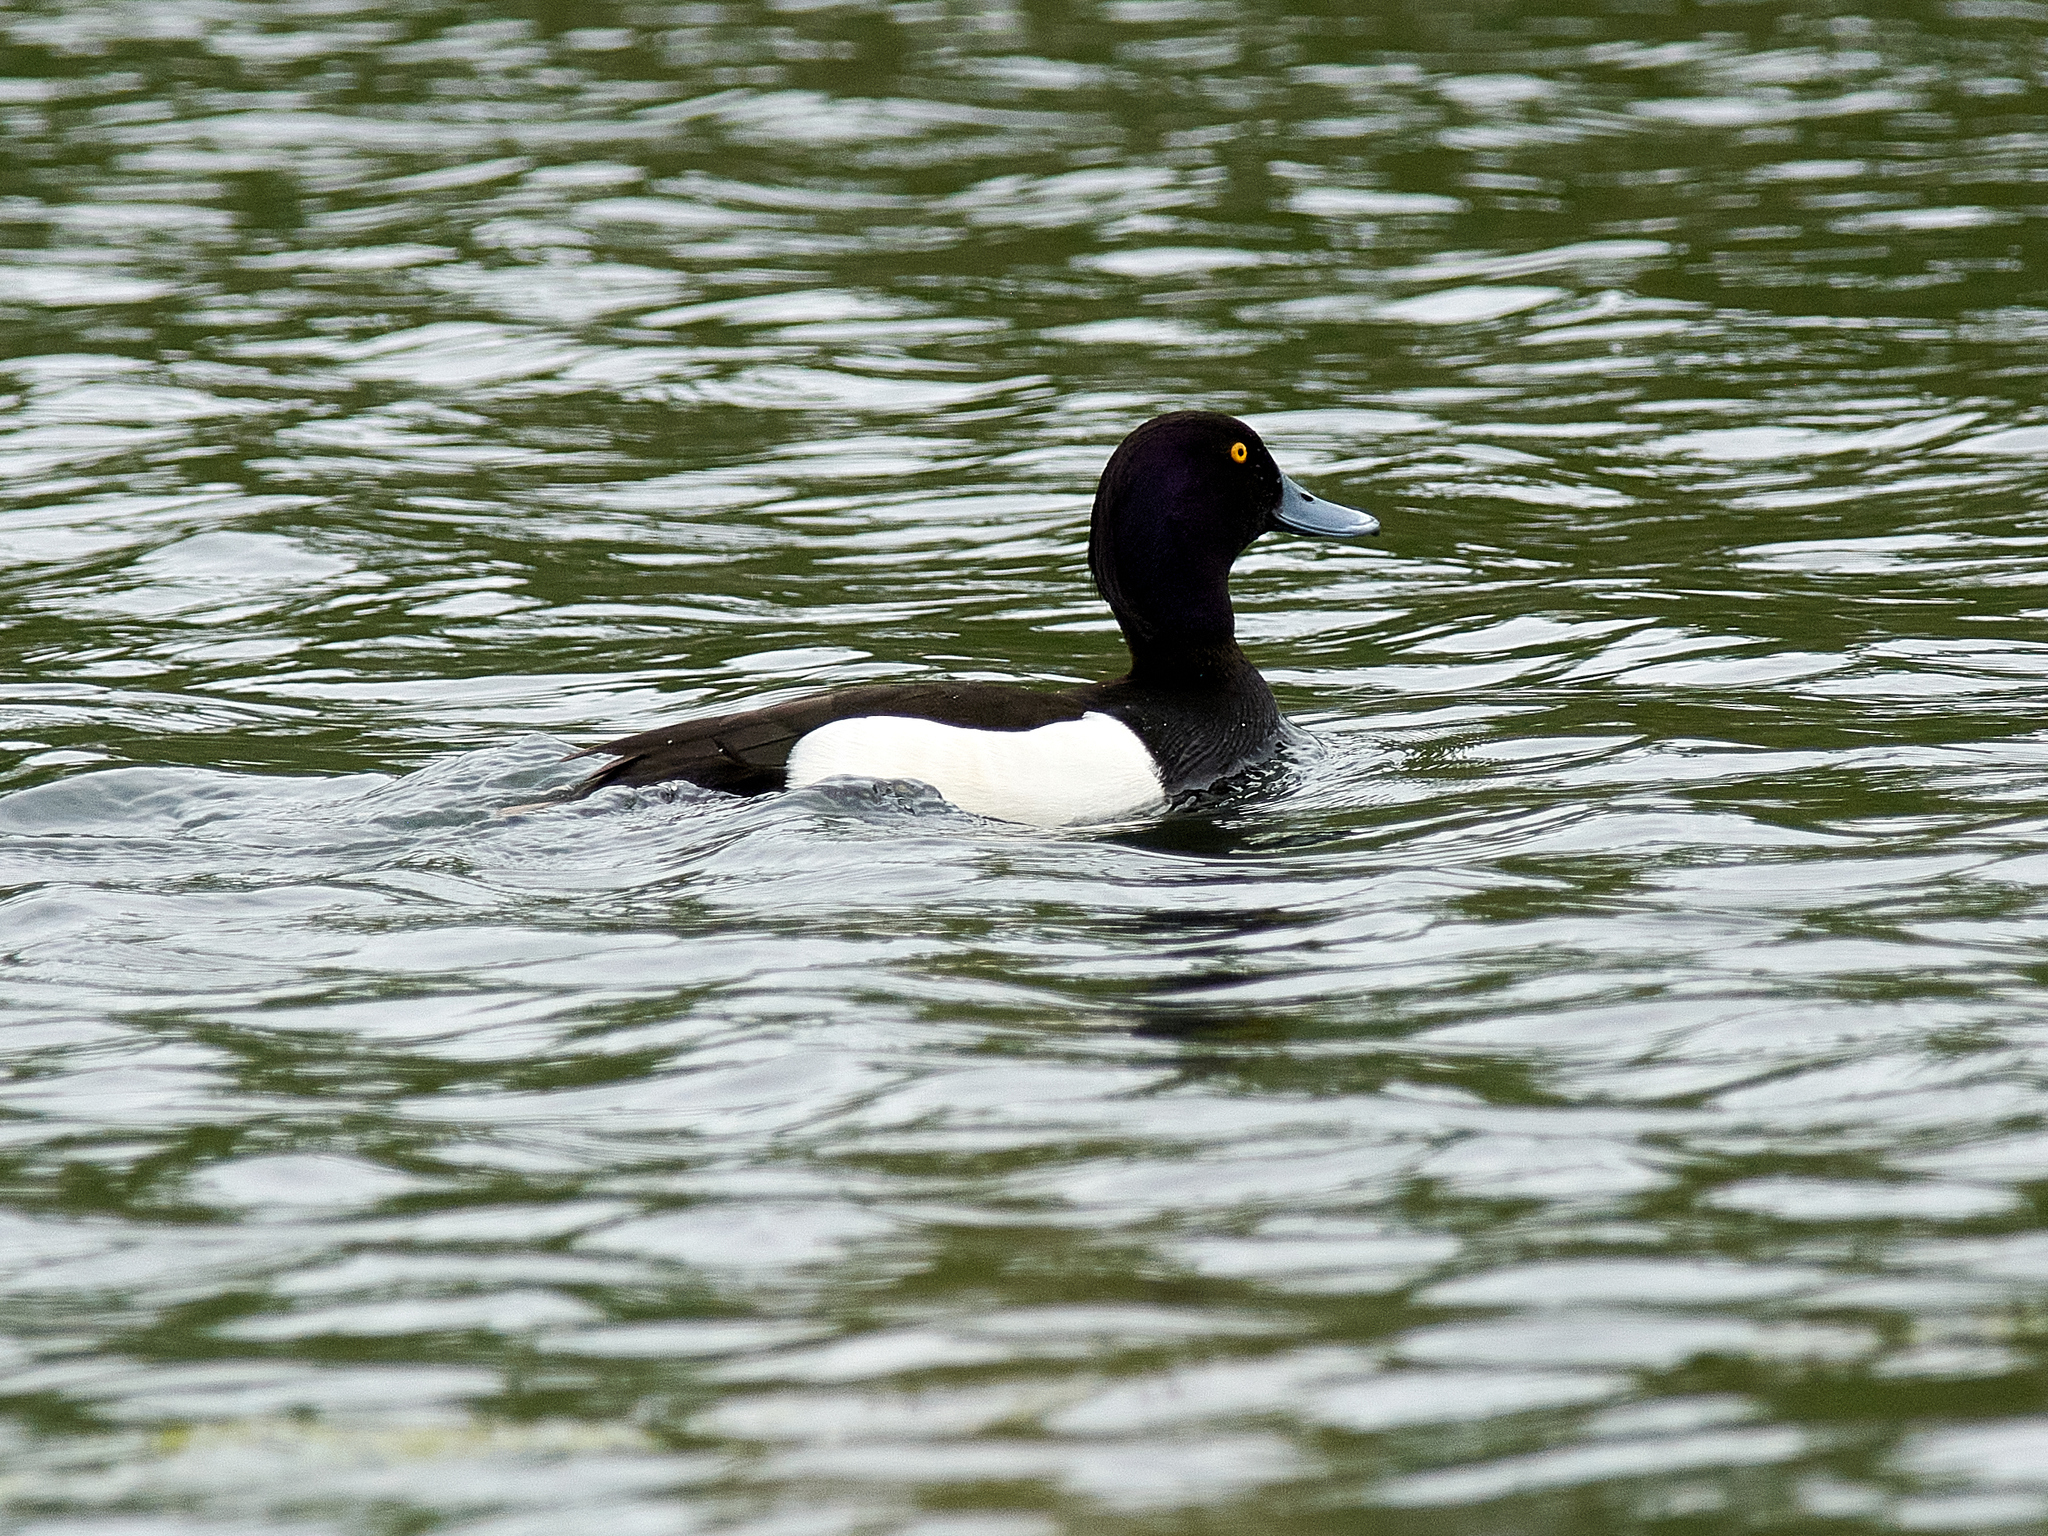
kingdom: Animalia
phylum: Chordata
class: Aves
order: Anseriformes
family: Anatidae
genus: Aythya
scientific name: Aythya fuligula
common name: Tufted duck
